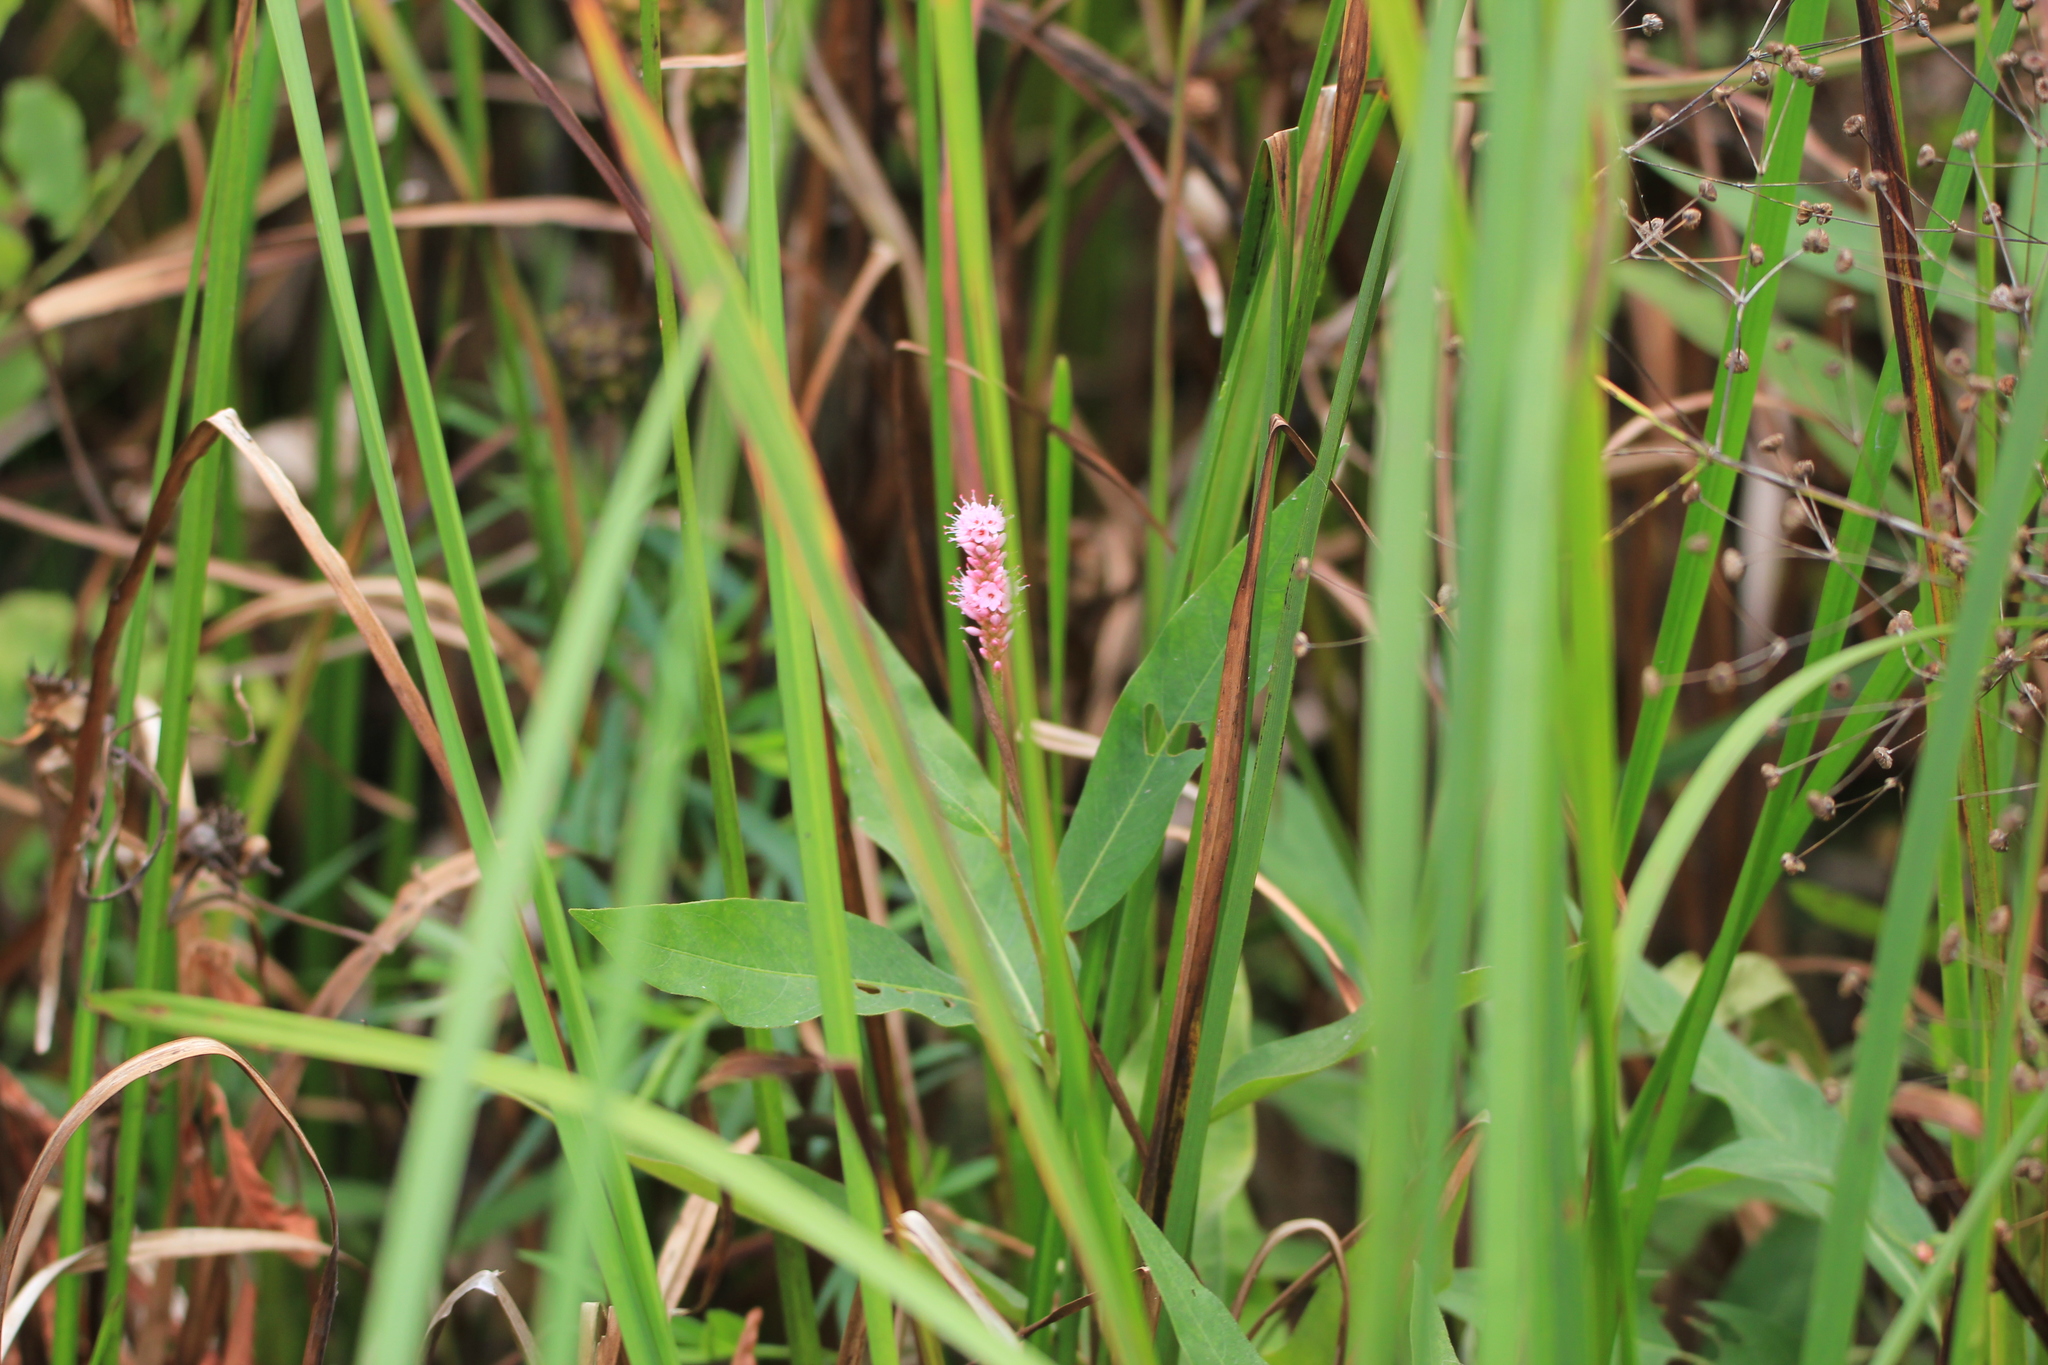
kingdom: Plantae
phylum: Tracheophyta
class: Magnoliopsida
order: Caryophyllales
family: Polygonaceae
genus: Persicaria
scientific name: Persicaria amphibia
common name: Amphibious bistort
